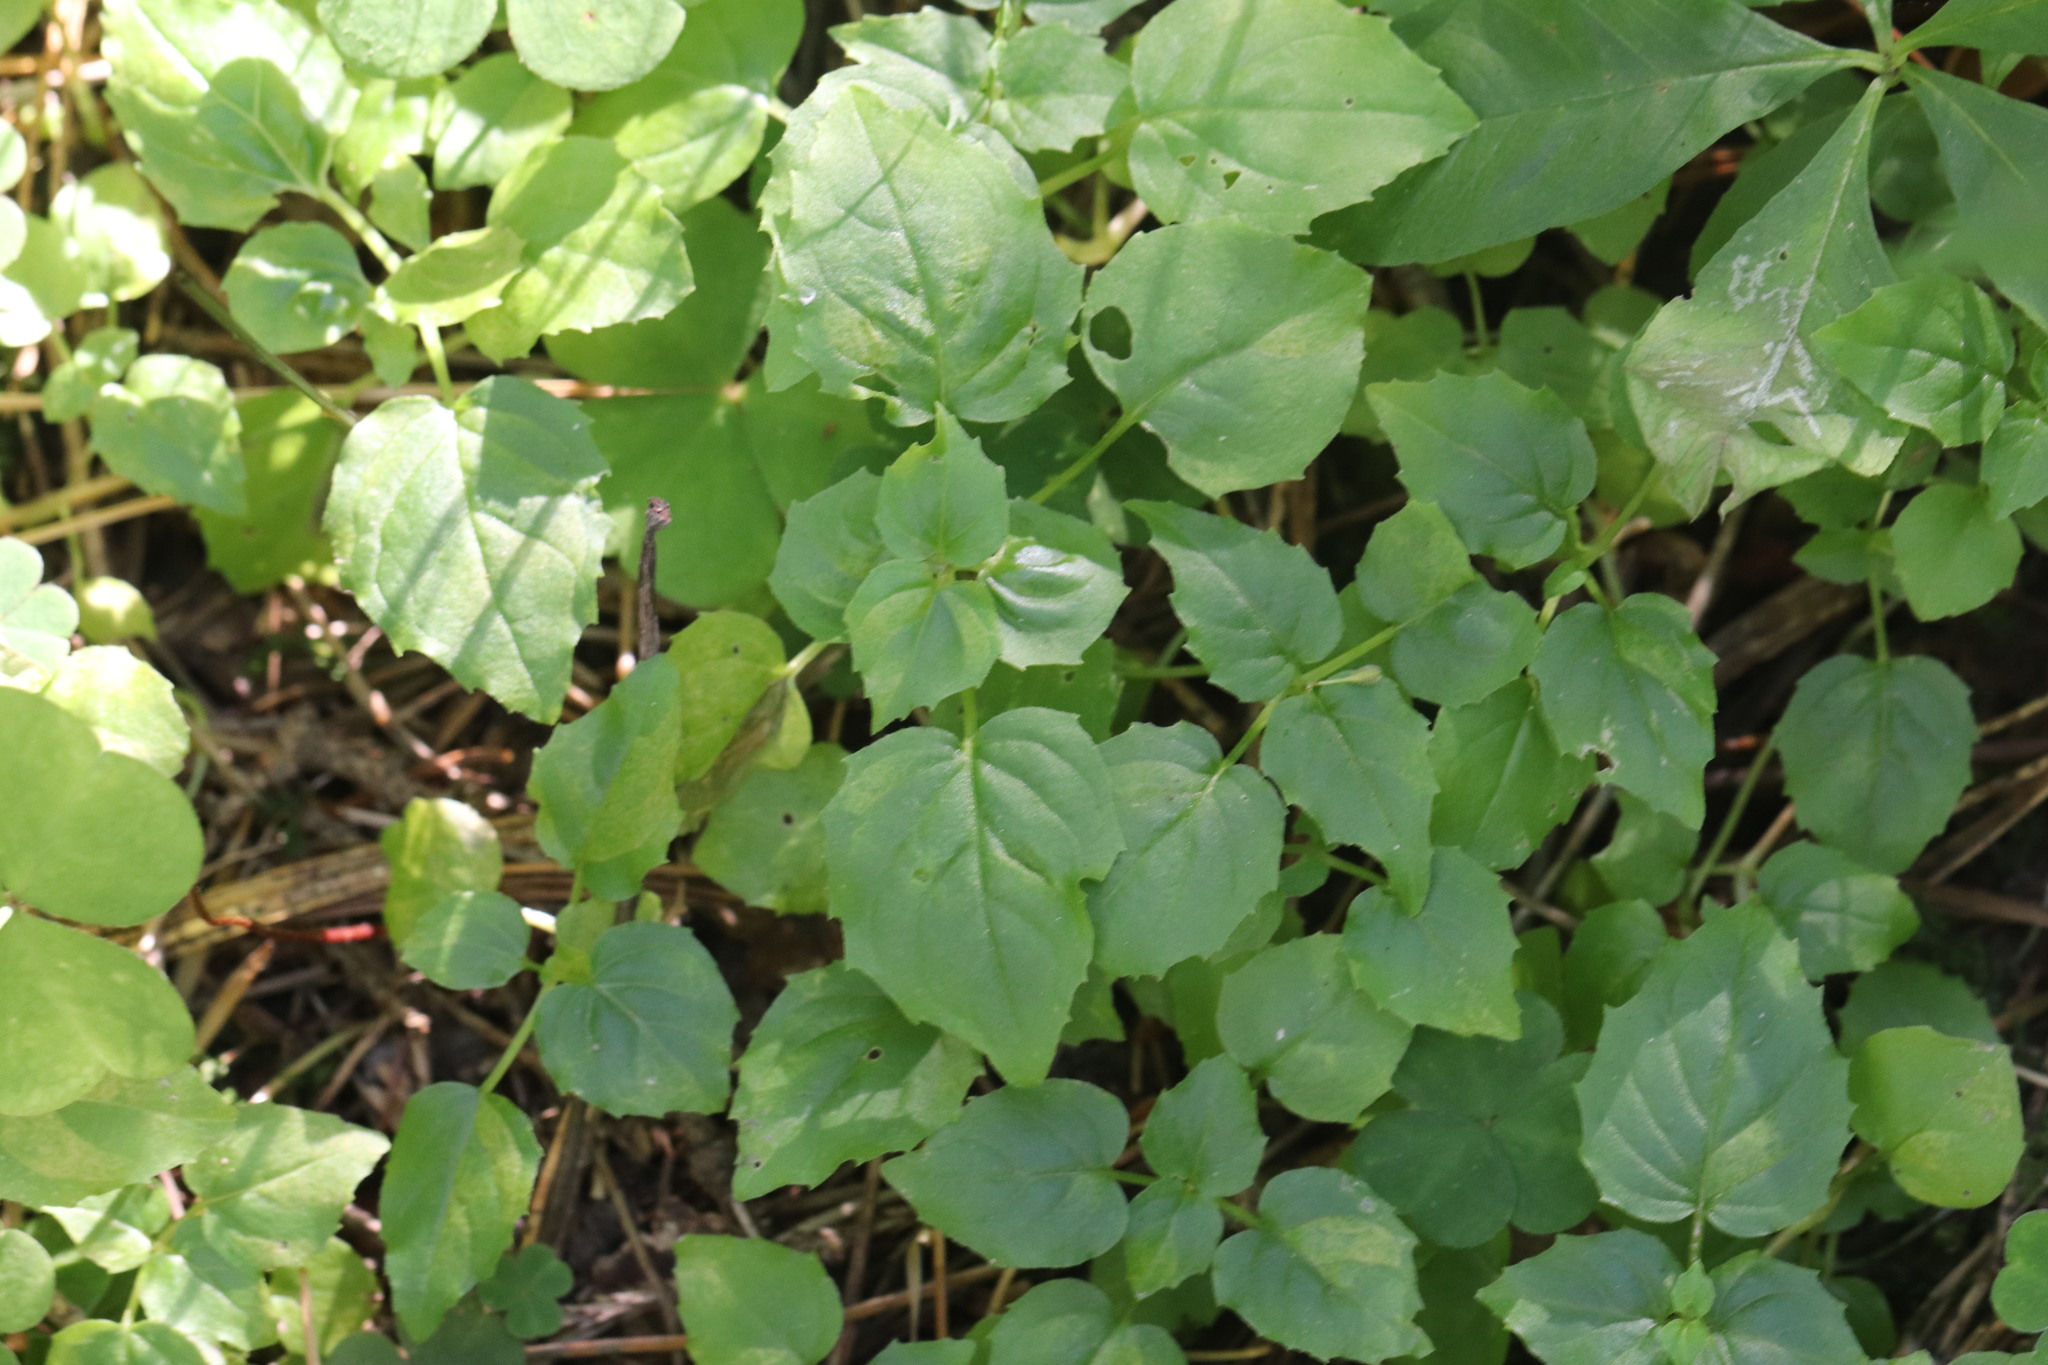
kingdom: Plantae
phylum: Tracheophyta
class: Magnoliopsida
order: Myrtales
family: Onagraceae
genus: Circaea
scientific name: Circaea alpina
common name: Alpine enchanter's-nightshade
